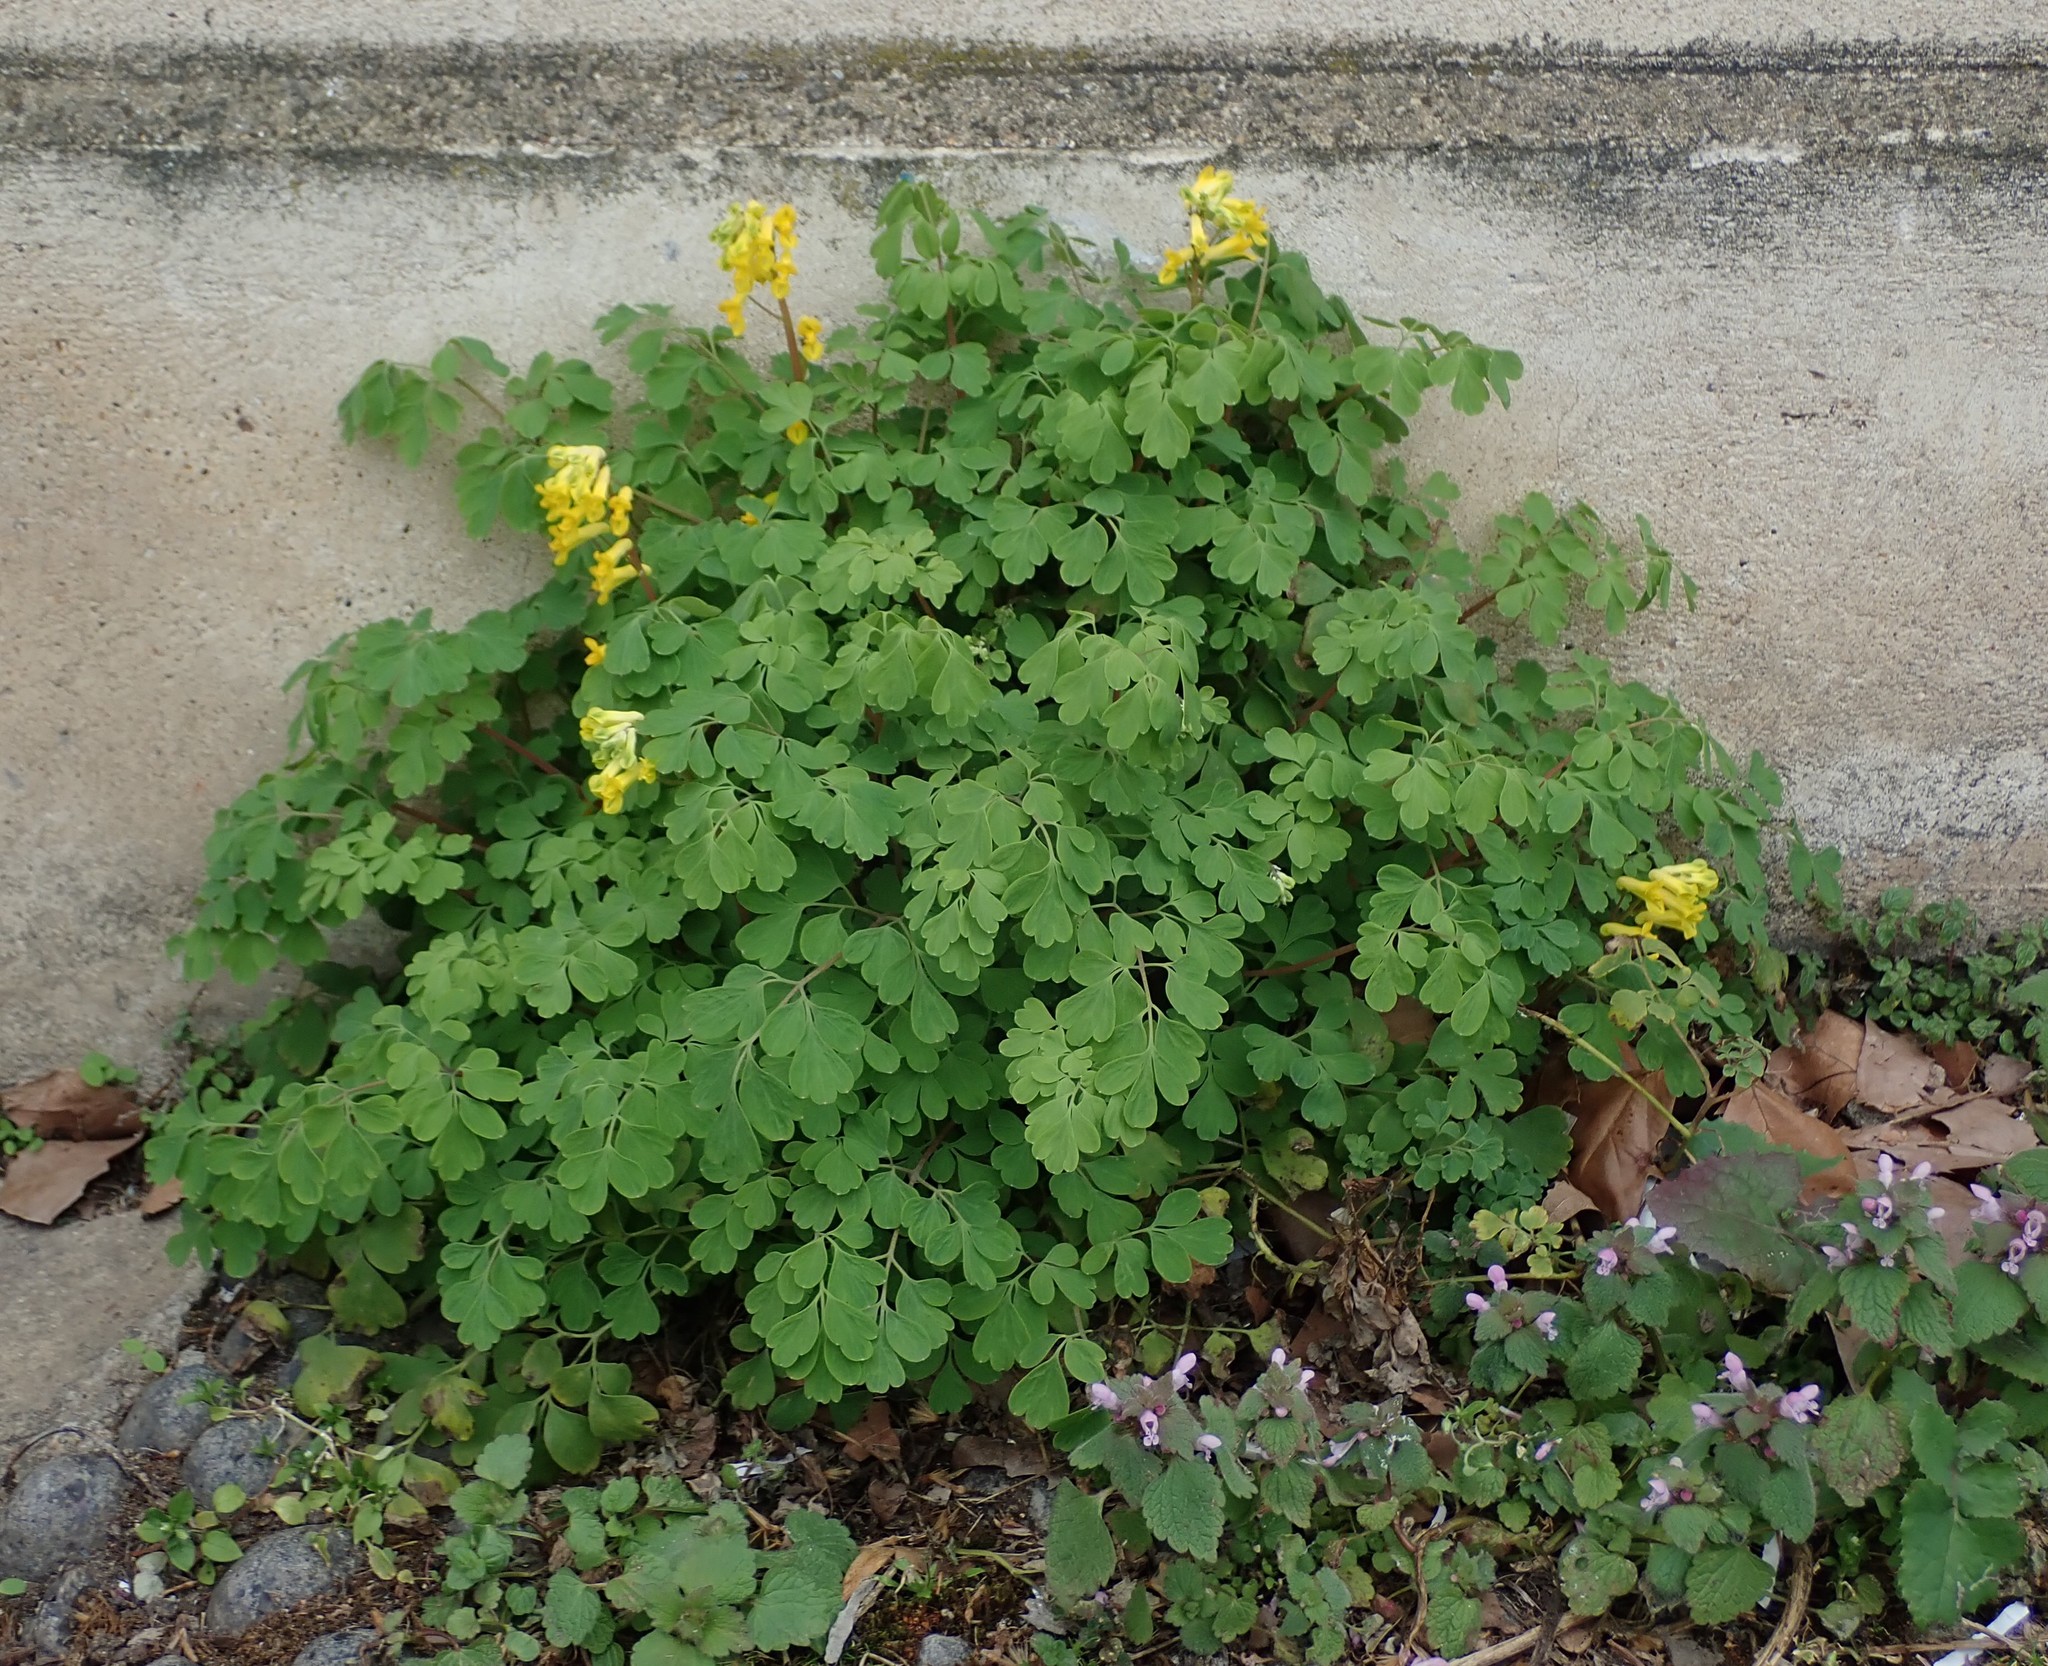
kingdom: Plantae
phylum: Tracheophyta
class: Magnoliopsida
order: Ranunculales
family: Papaveraceae
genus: Pseudofumaria
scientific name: Pseudofumaria lutea
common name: Yellow corydalis
